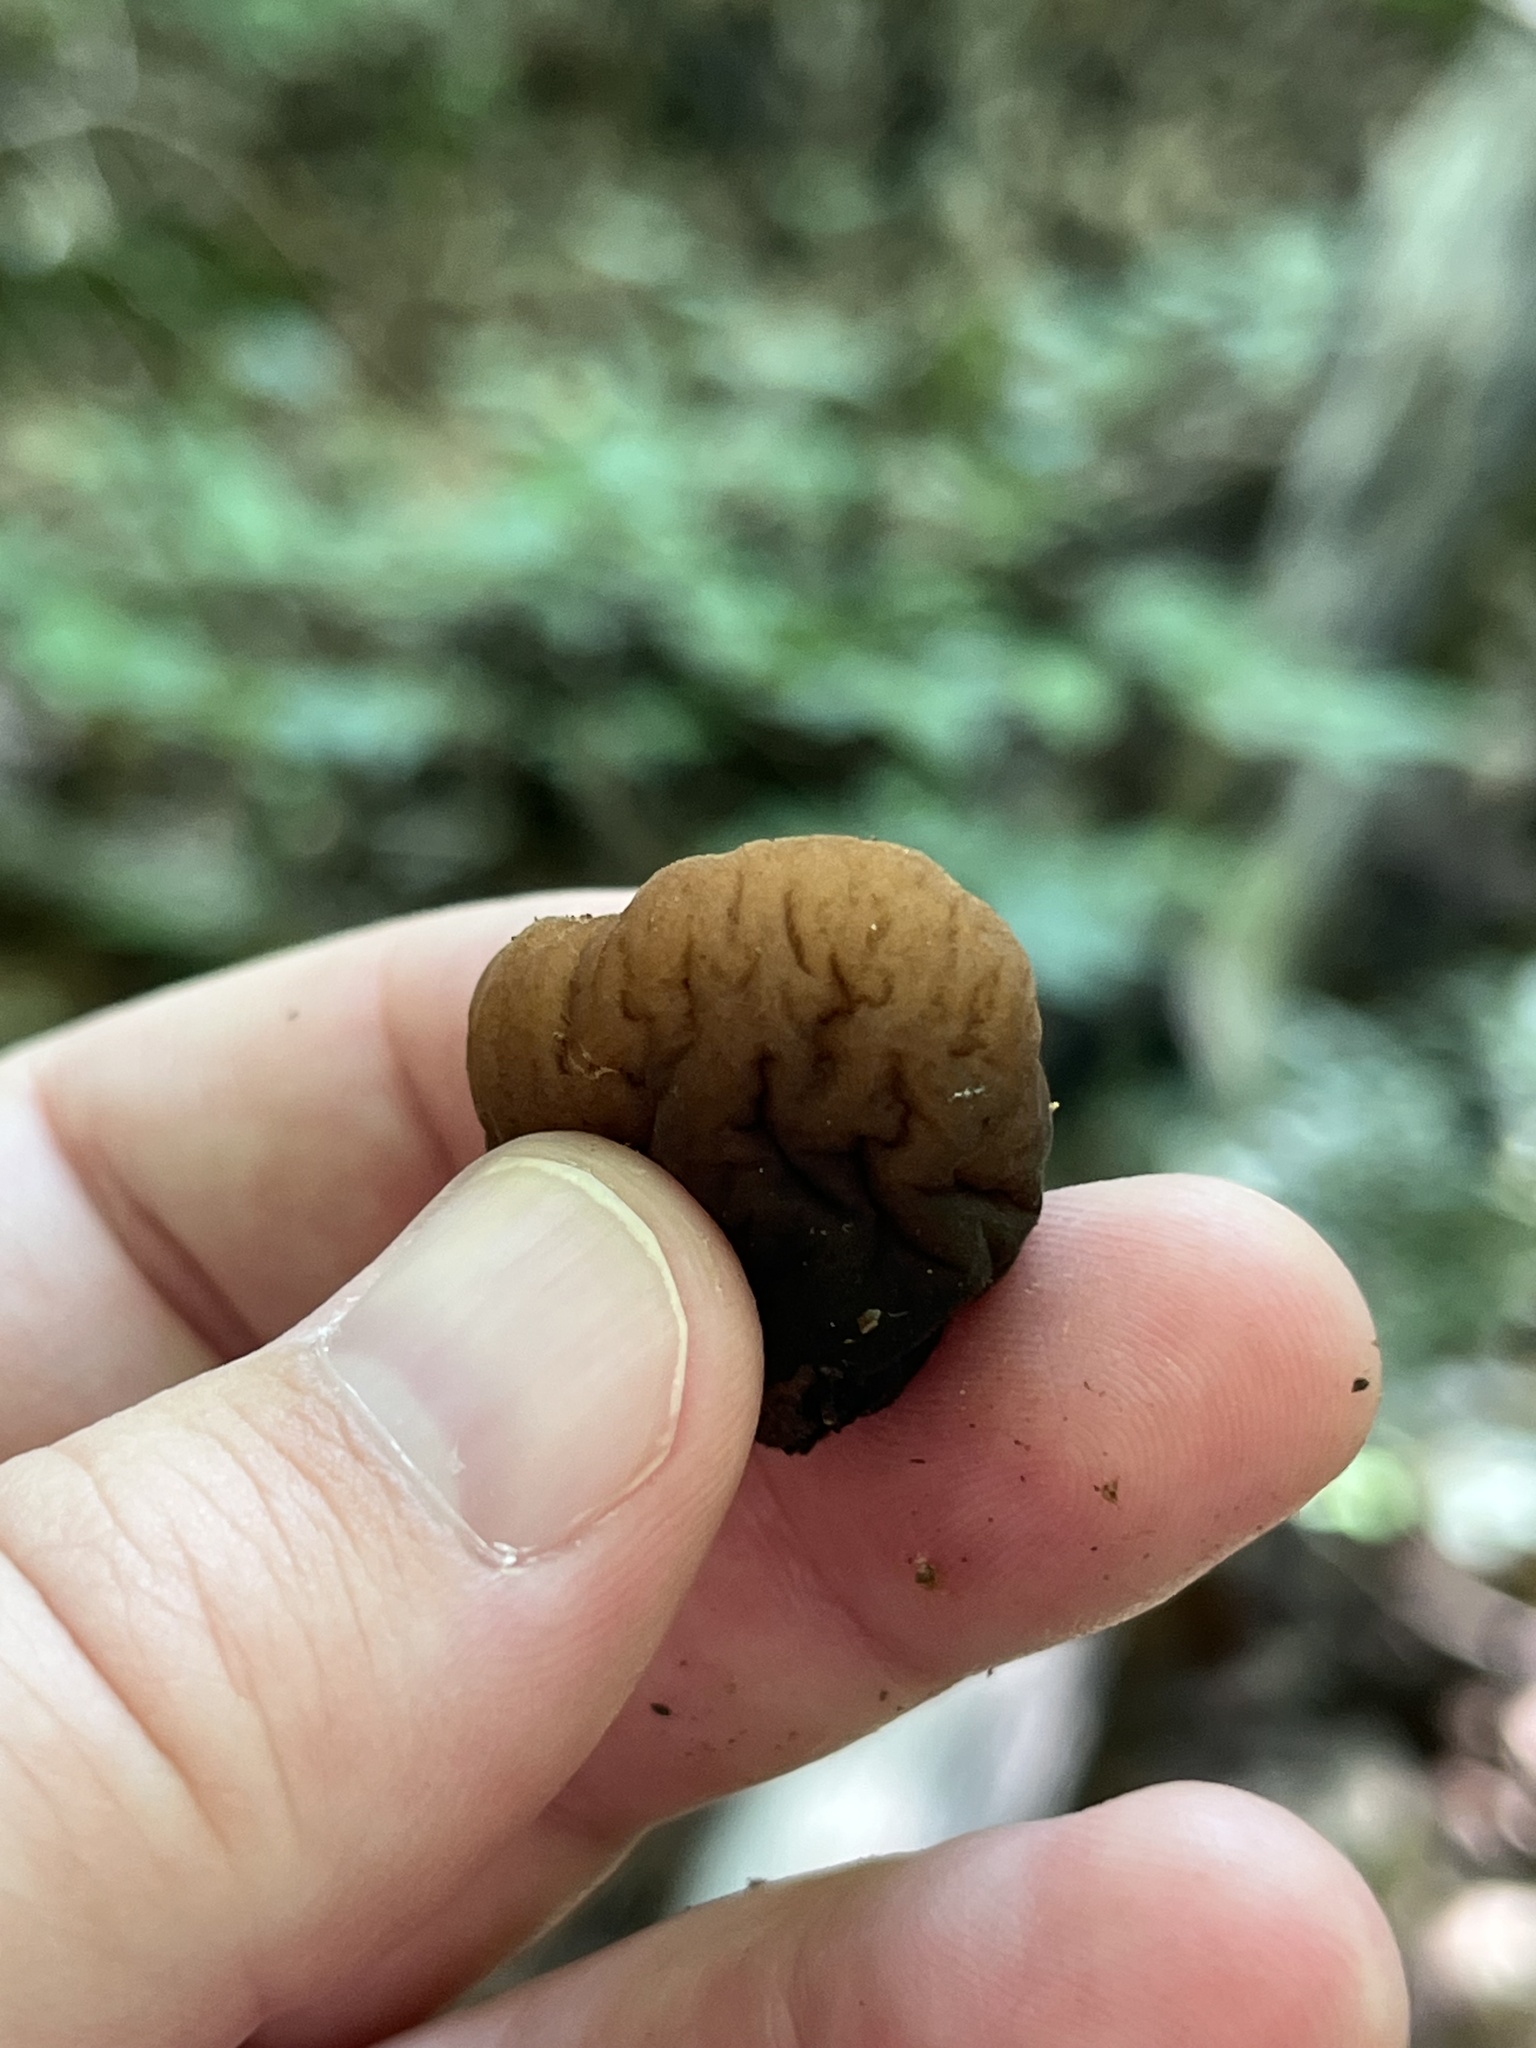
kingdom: Fungi
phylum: Ascomycota
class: Pezizomycetes
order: Pezizales
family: Sarcosomataceae
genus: Galiella
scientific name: Galiella rufa
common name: Hairy rubber cup
